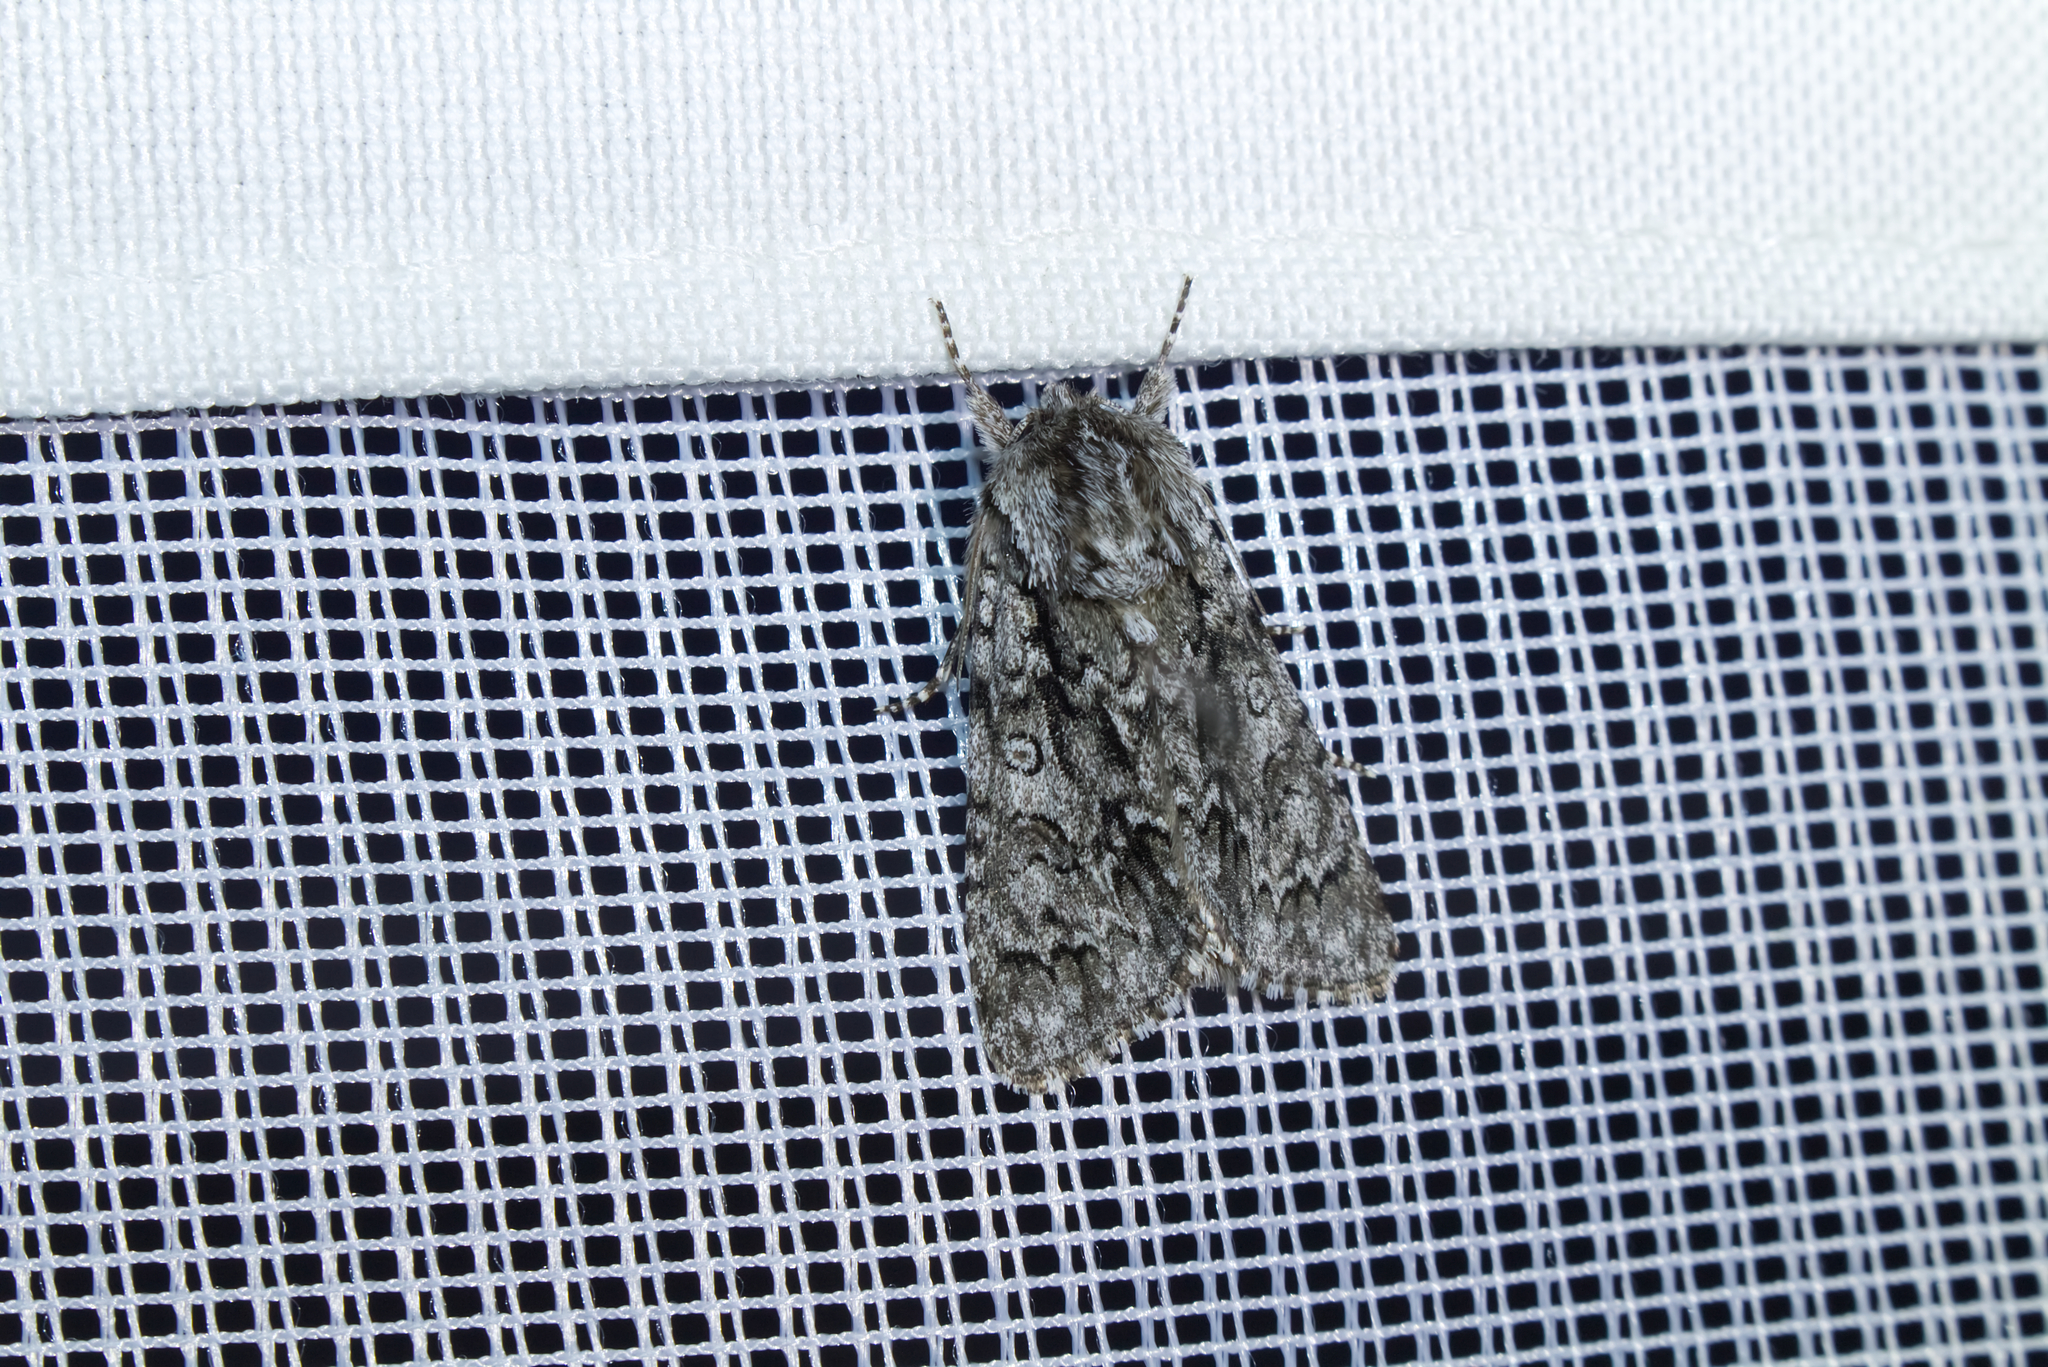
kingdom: Animalia
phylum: Arthropoda
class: Insecta
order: Lepidoptera
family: Noctuidae
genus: Acronicta
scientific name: Acronicta auricoma
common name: Scarce dagger
